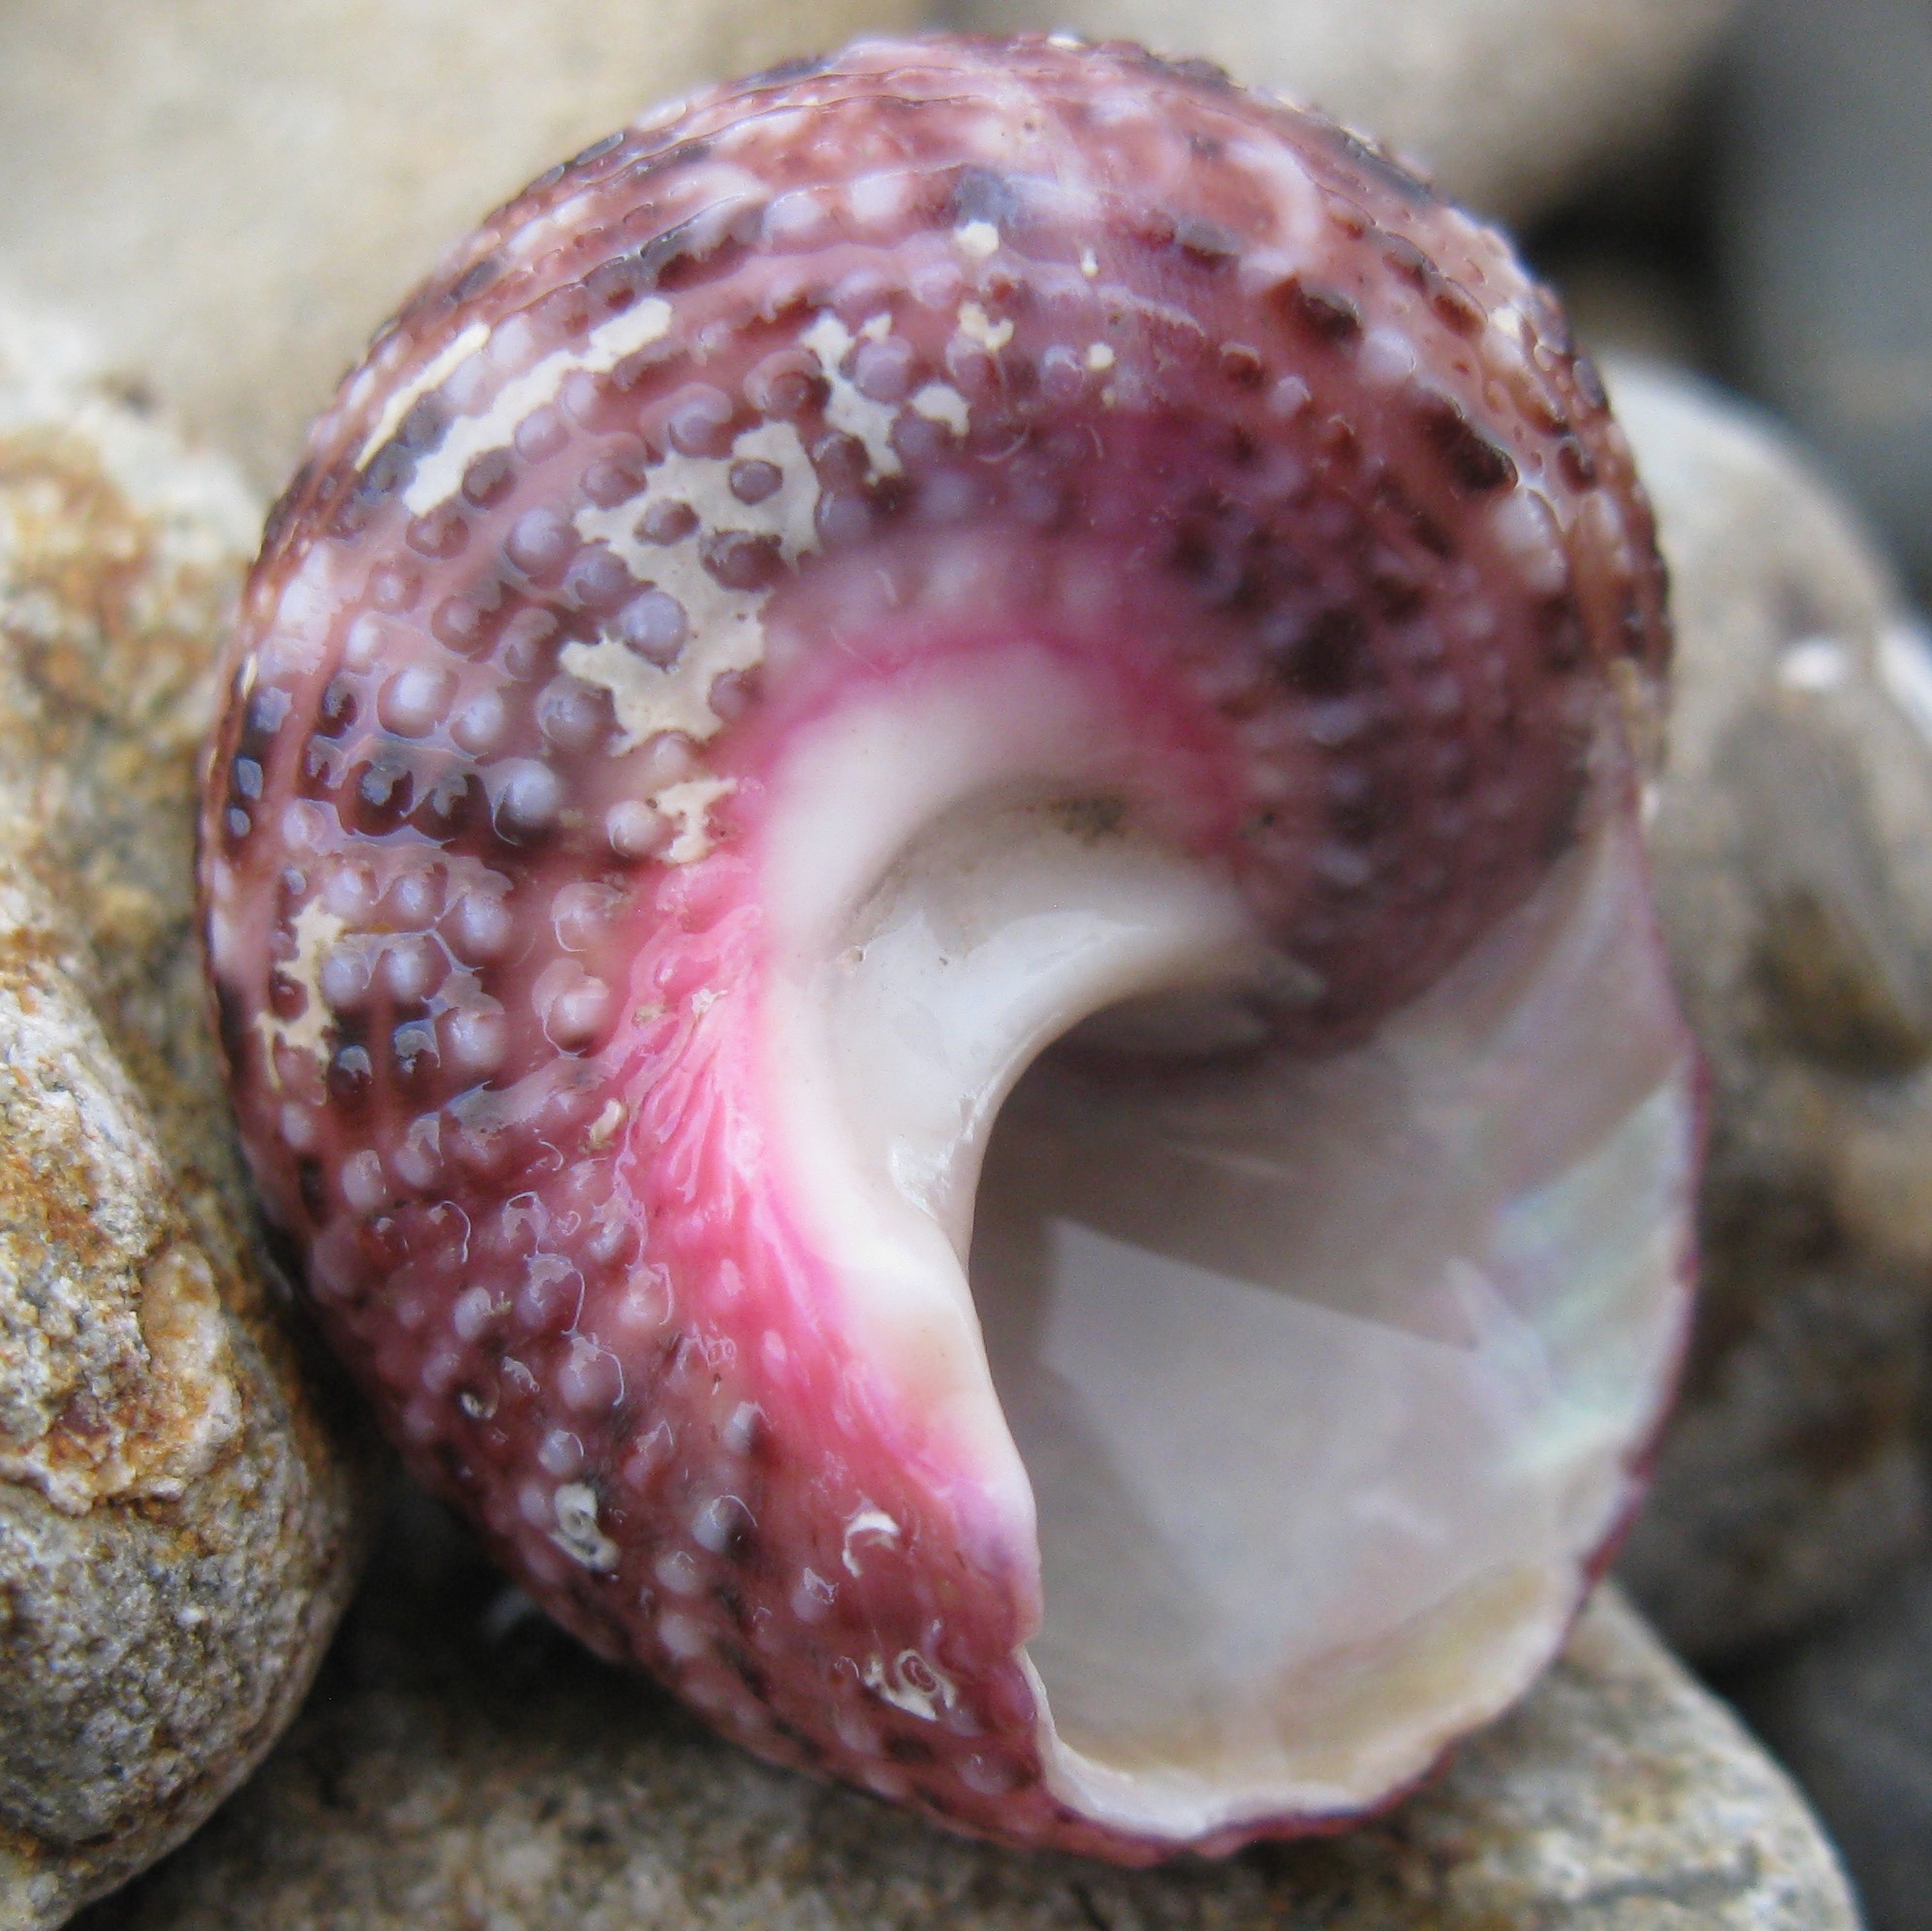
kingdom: Animalia
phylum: Mollusca
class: Gastropoda
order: Trochida
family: Turbinidae
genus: Modelia
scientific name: Modelia granosa
